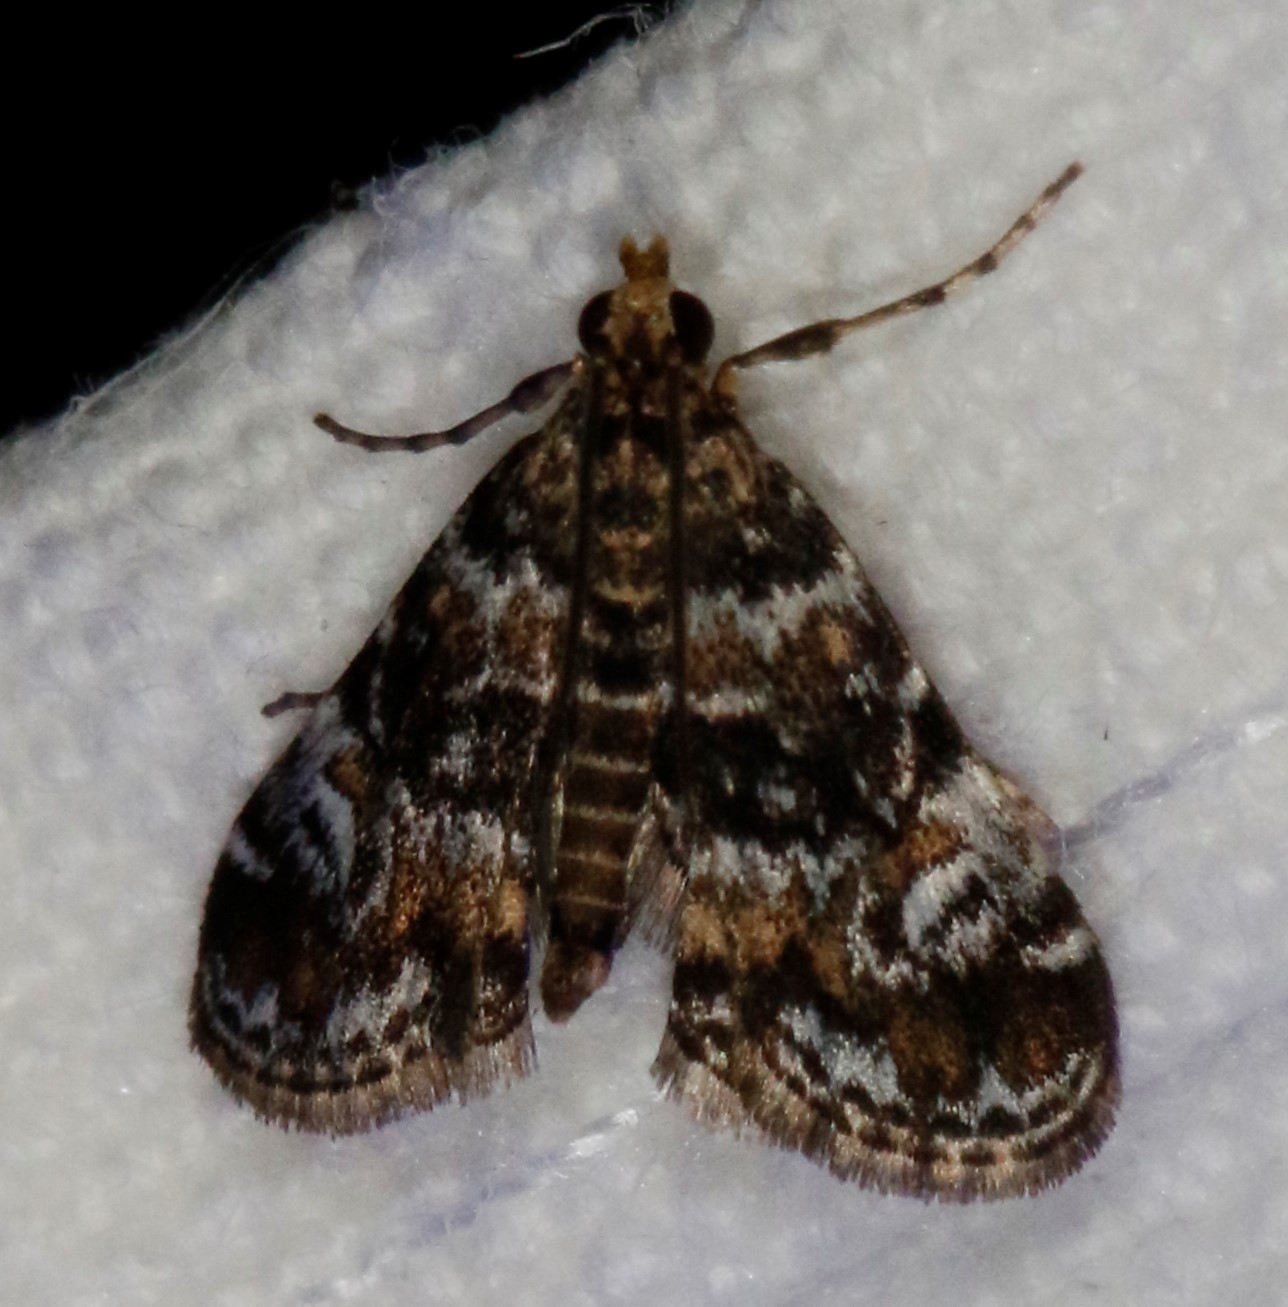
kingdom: Animalia
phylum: Arthropoda
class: Insecta
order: Lepidoptera
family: Crambidae
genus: Elophila
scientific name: Elophila obliteralis
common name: Waterlily leafcutter moth
